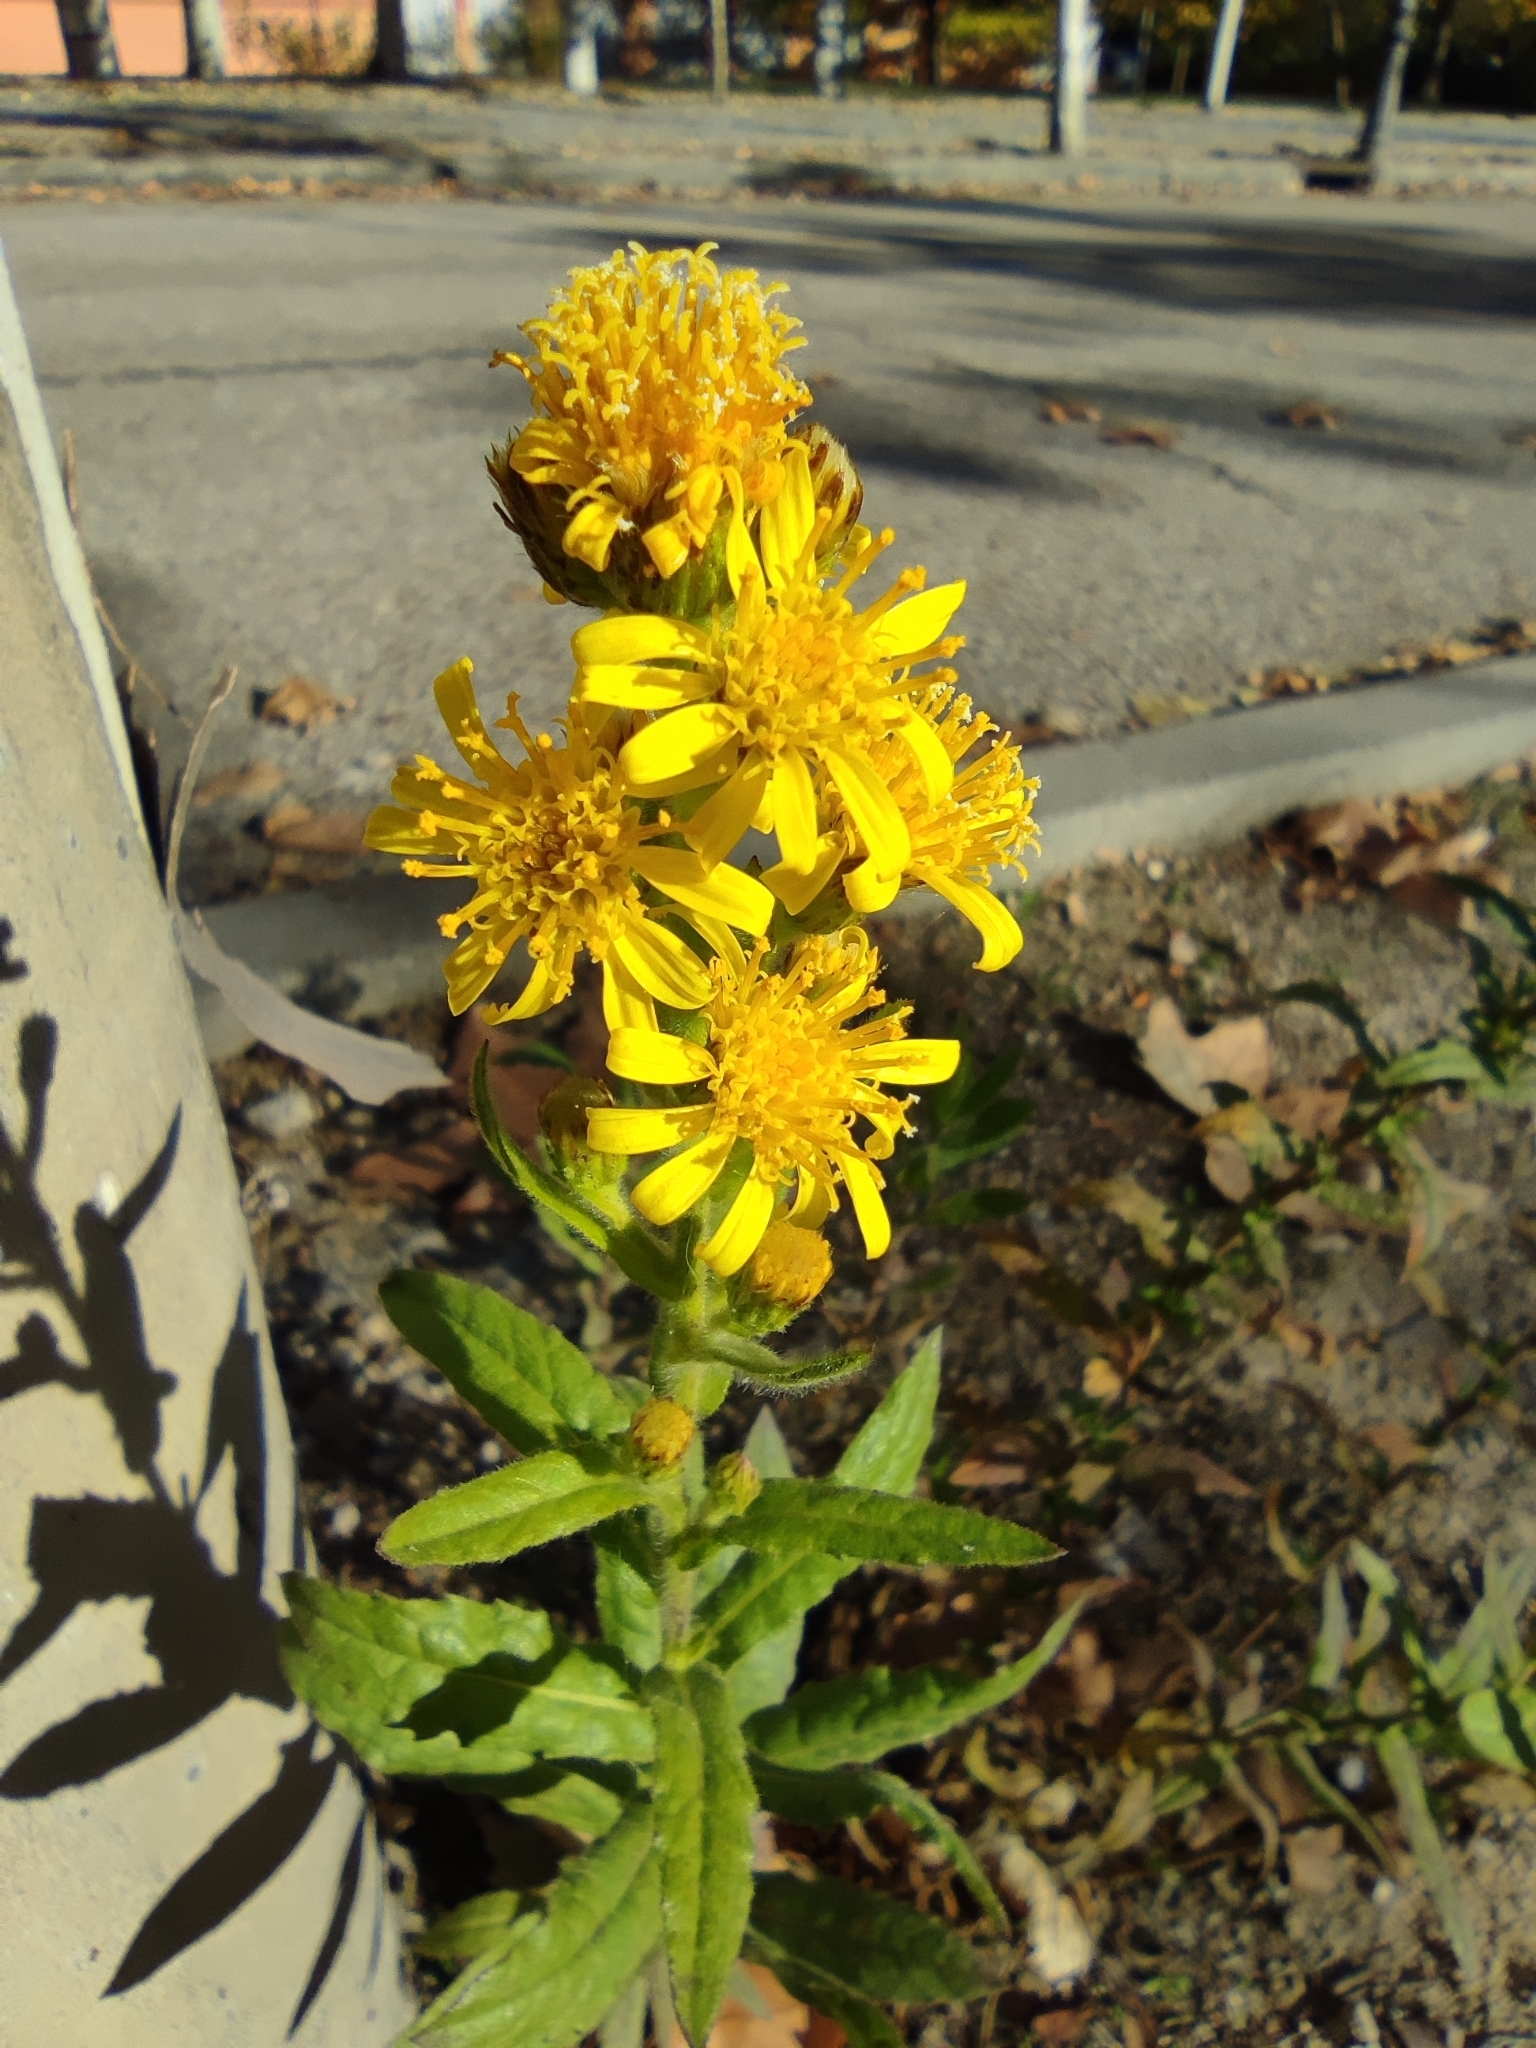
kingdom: Plantae
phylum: Tracheophyta
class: Magnoliopsida
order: Asterales
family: Asteraceae
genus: Dittrichia
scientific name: Dittrichia viscosa
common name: Woody fleabane
